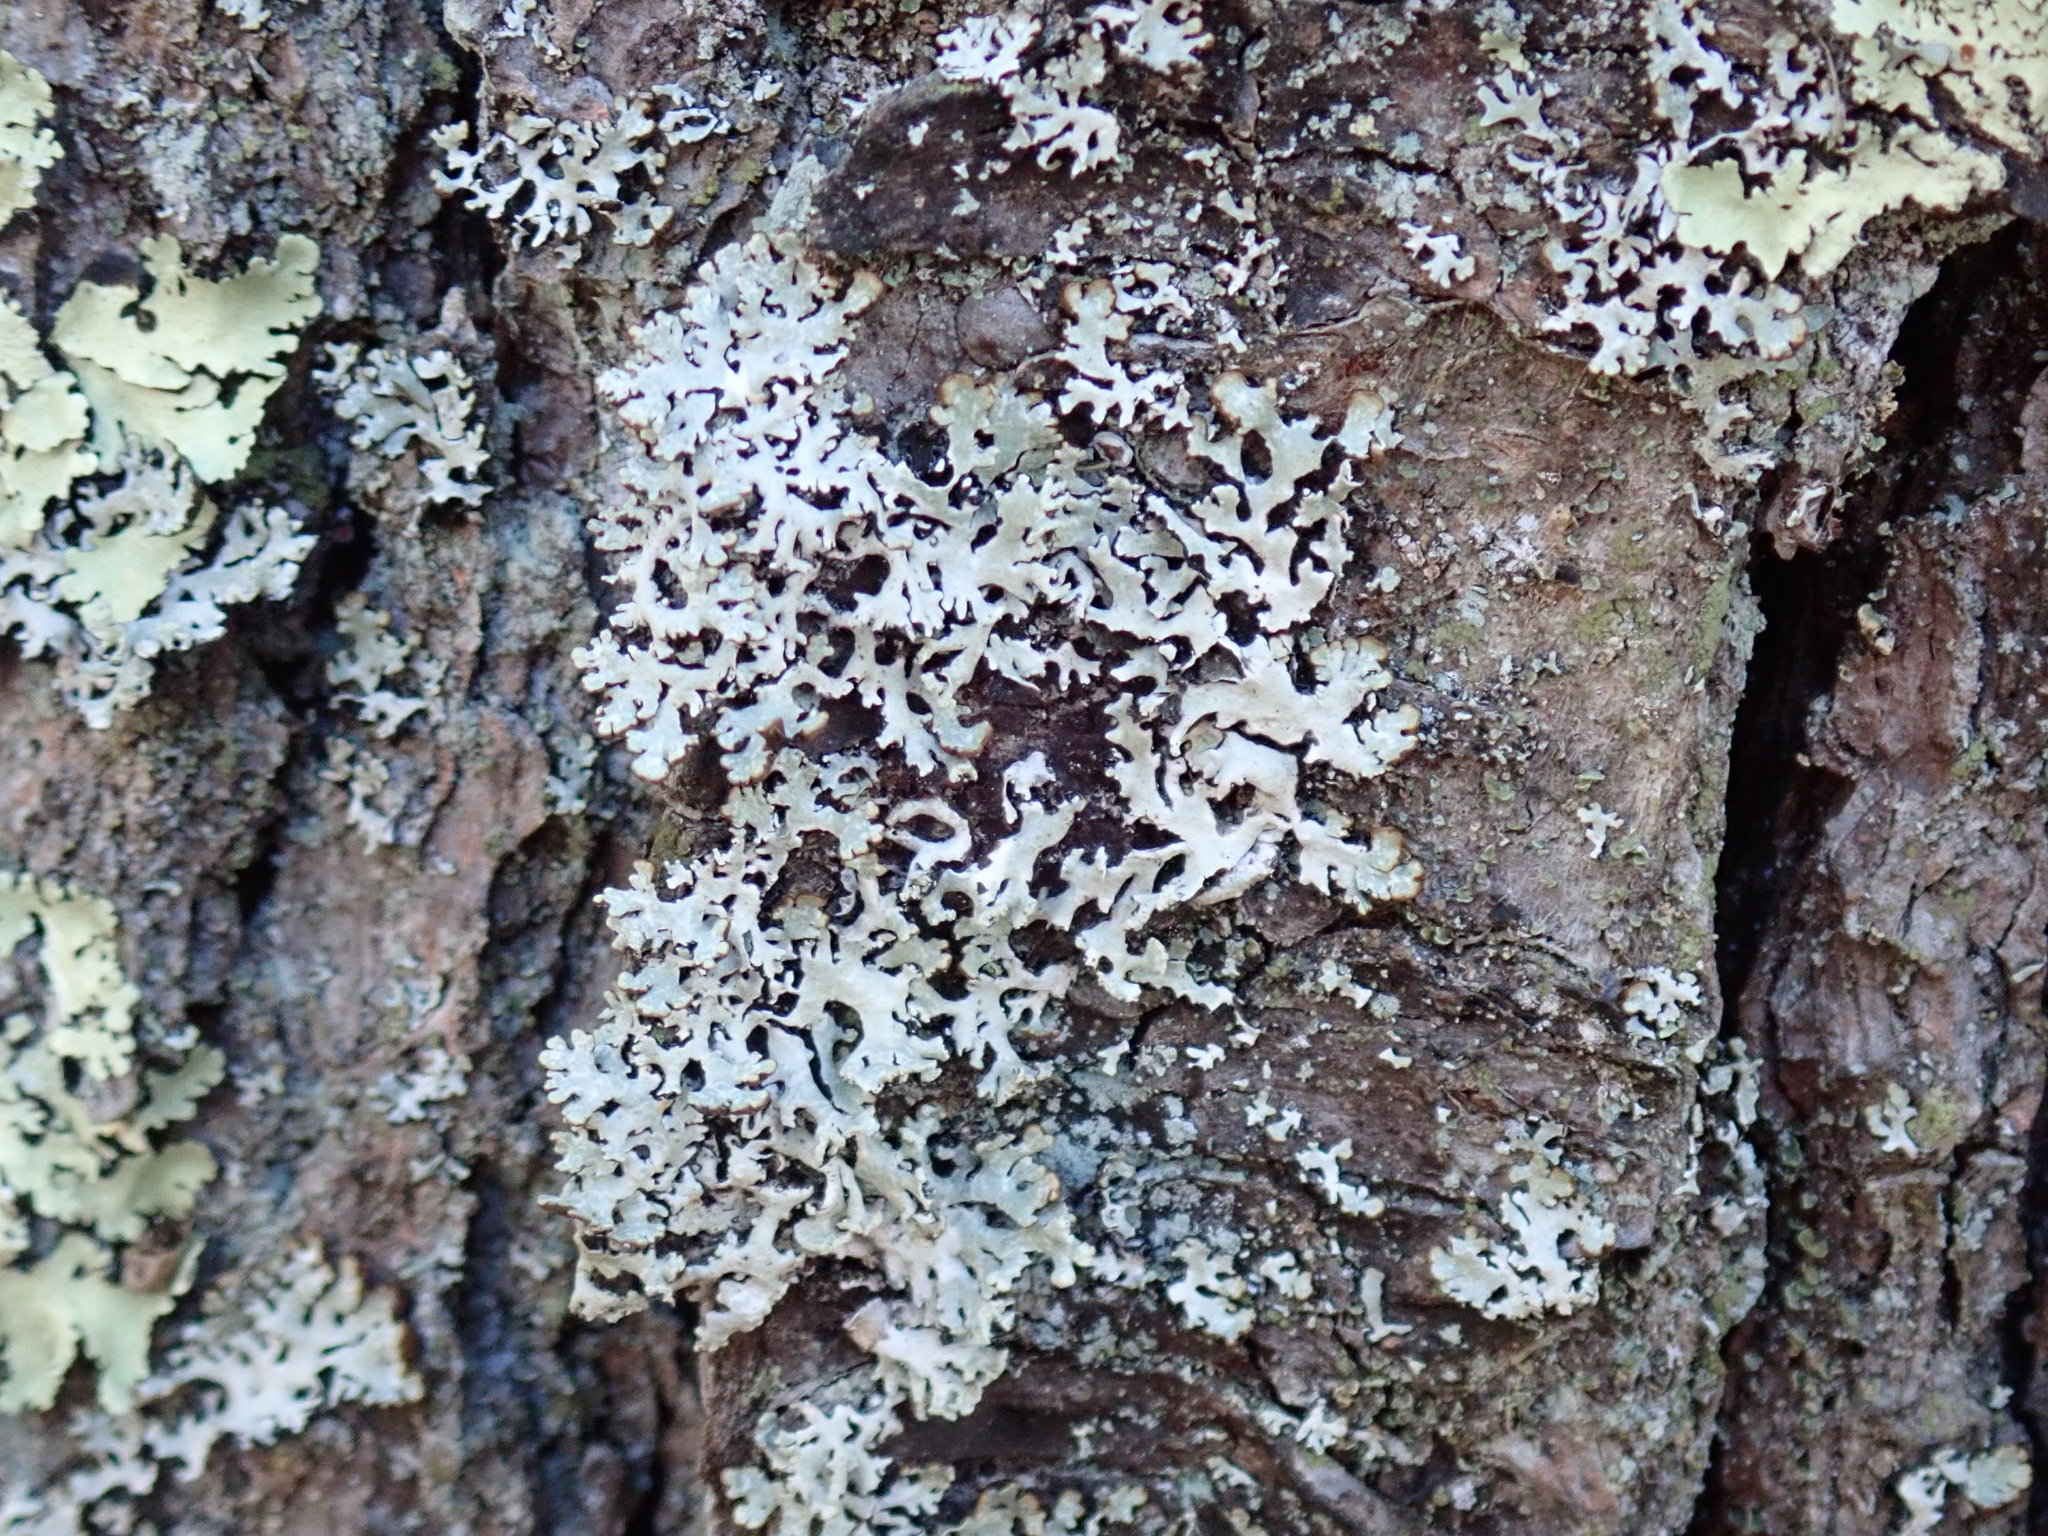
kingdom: Fungi
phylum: Ascomycota
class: Lecanoromycetes
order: Lecanorales
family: Parmeliaceae
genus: Hypogymnia
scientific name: Hypogymnia physodes
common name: Dark crottle
